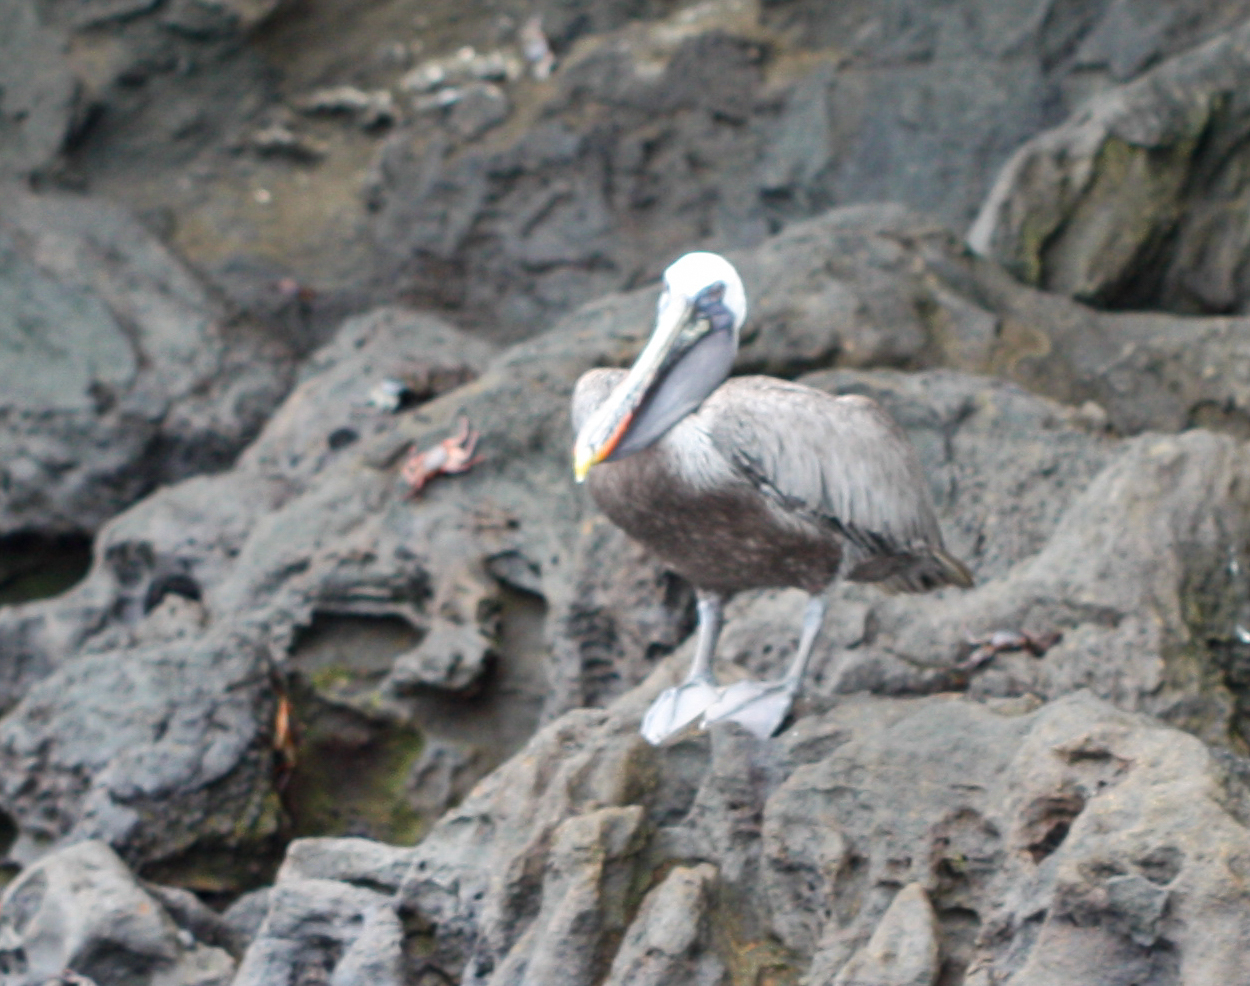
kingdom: Animalia
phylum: Chordata
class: Aves
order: Pelecaniformes
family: Pelecanidae
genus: Pelecanus
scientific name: Pelecanus occidentalis
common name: Brown pelican
